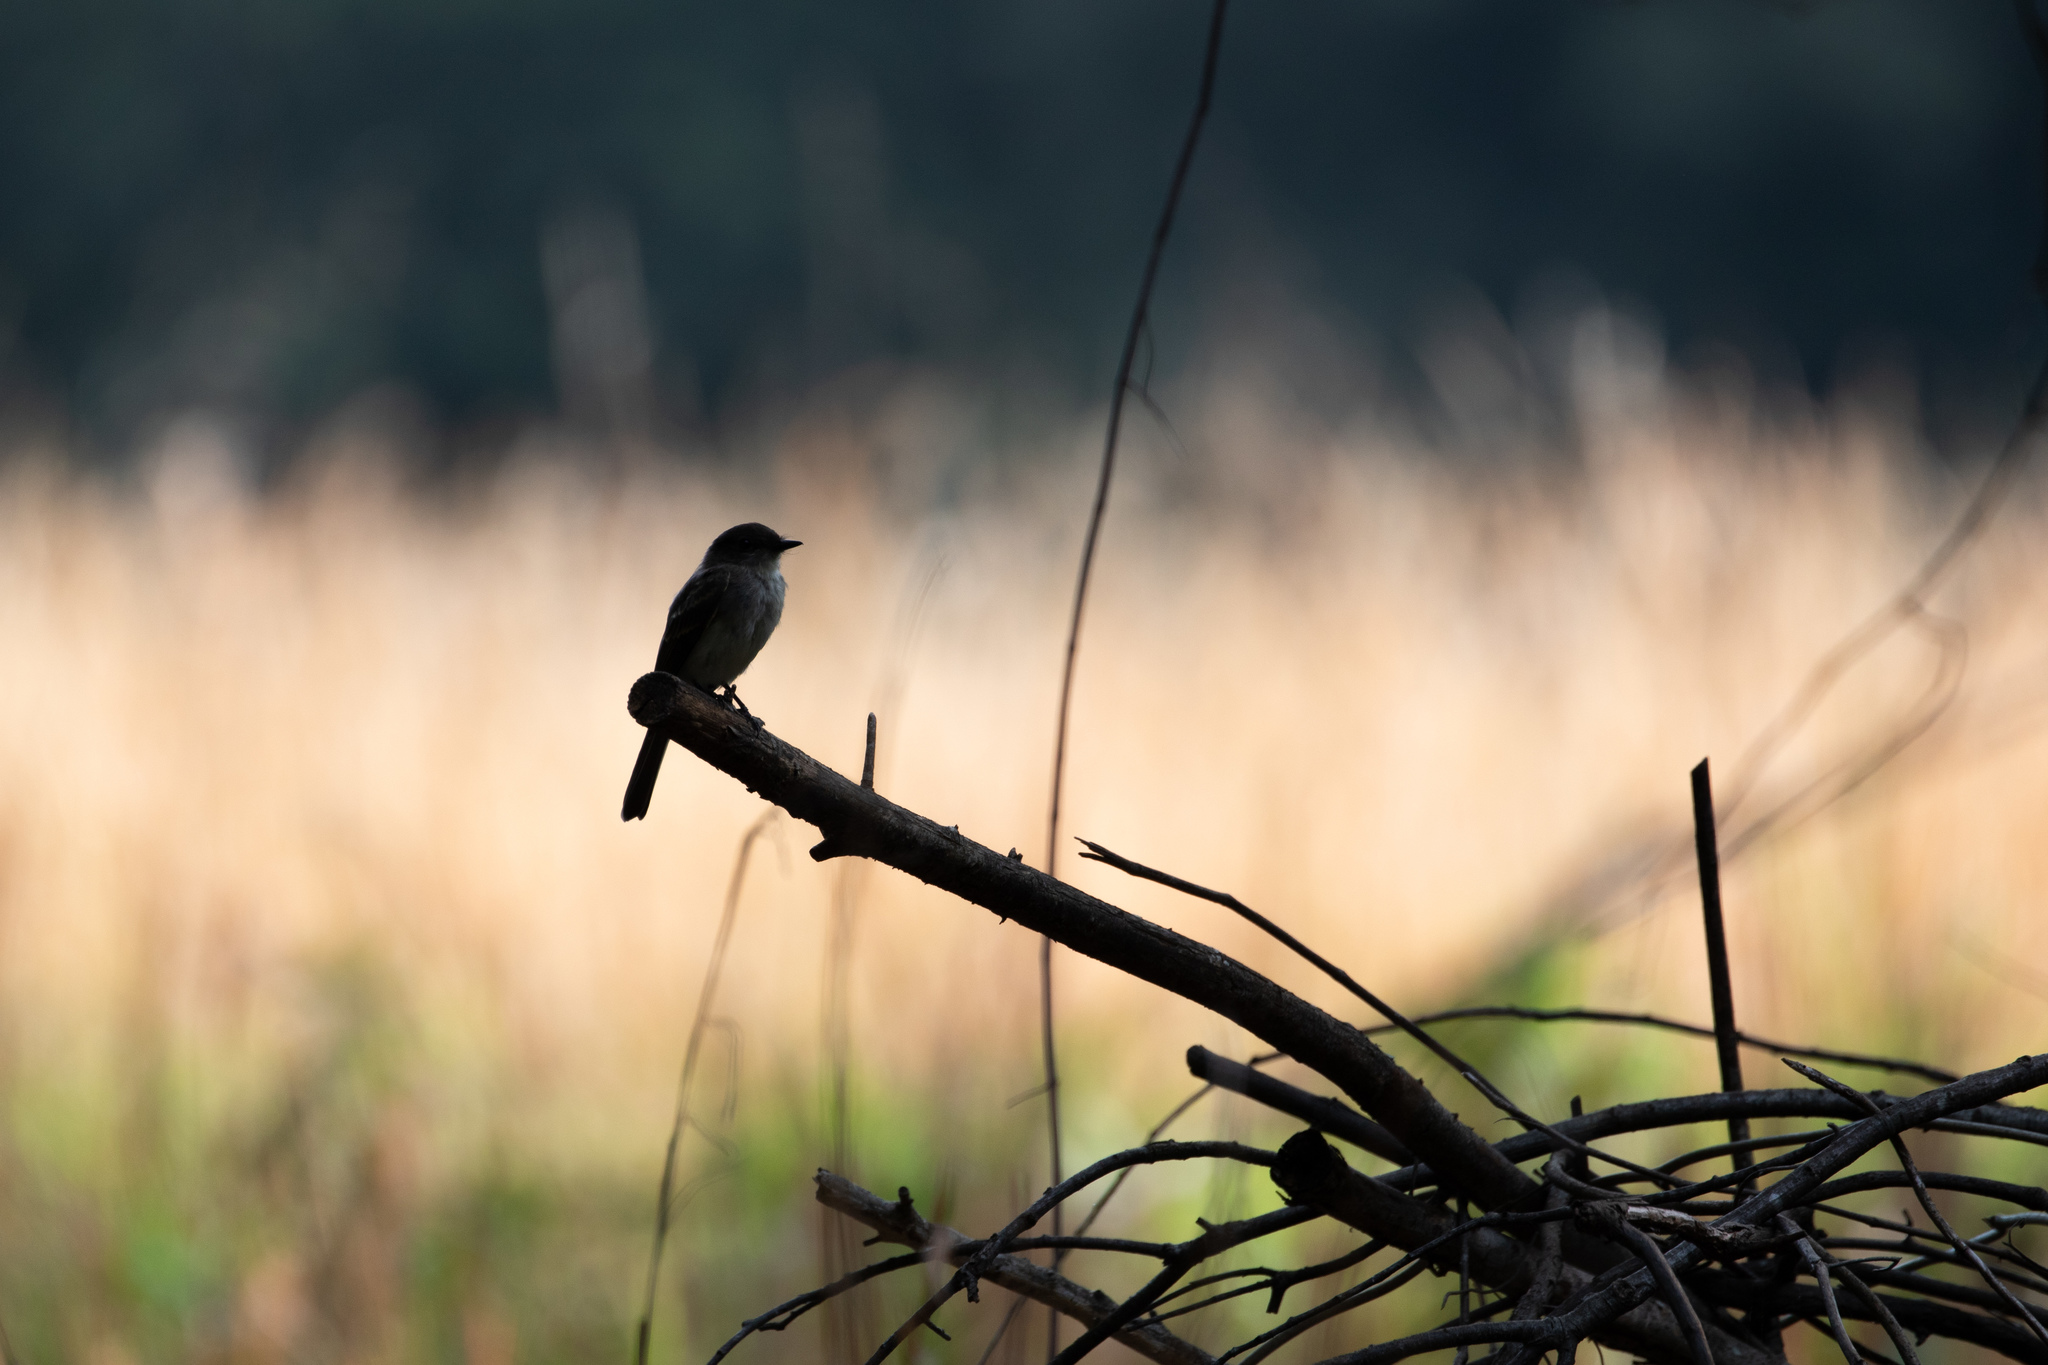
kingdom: Animalia
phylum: Chordata
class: Aves
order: Passeriformes
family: Tyrannidae
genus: Sayornis
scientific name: Sayornis phoebe
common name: Eastern phoebe
